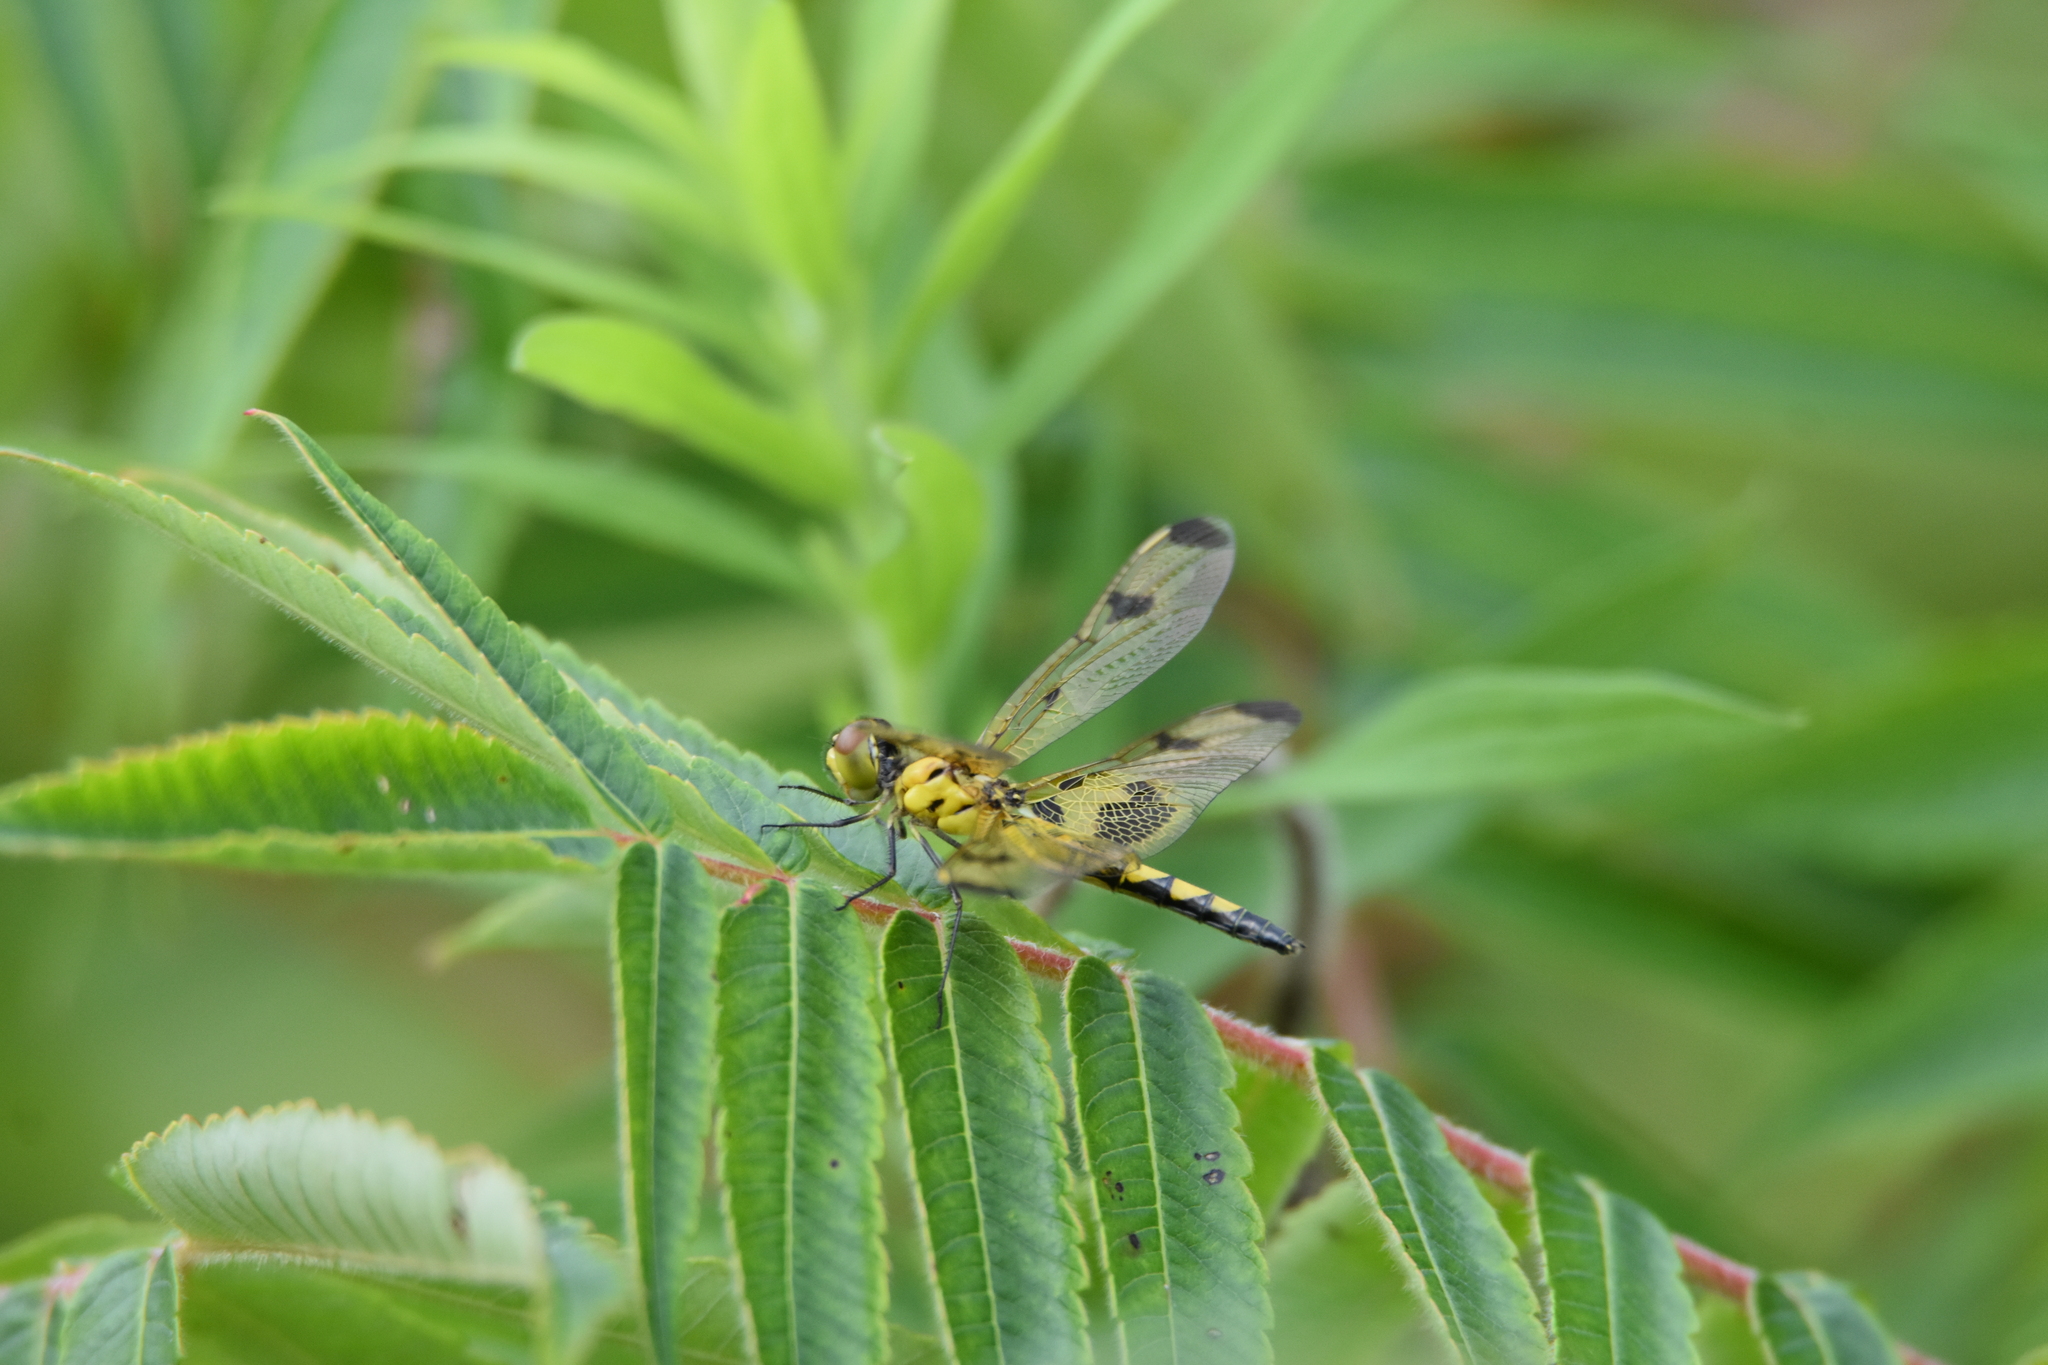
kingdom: Animalia
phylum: Arthropoda
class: Insecta
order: Odonata
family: Libellulidae
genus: Celithemis
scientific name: Celithemis elisa
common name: Calico pennant
